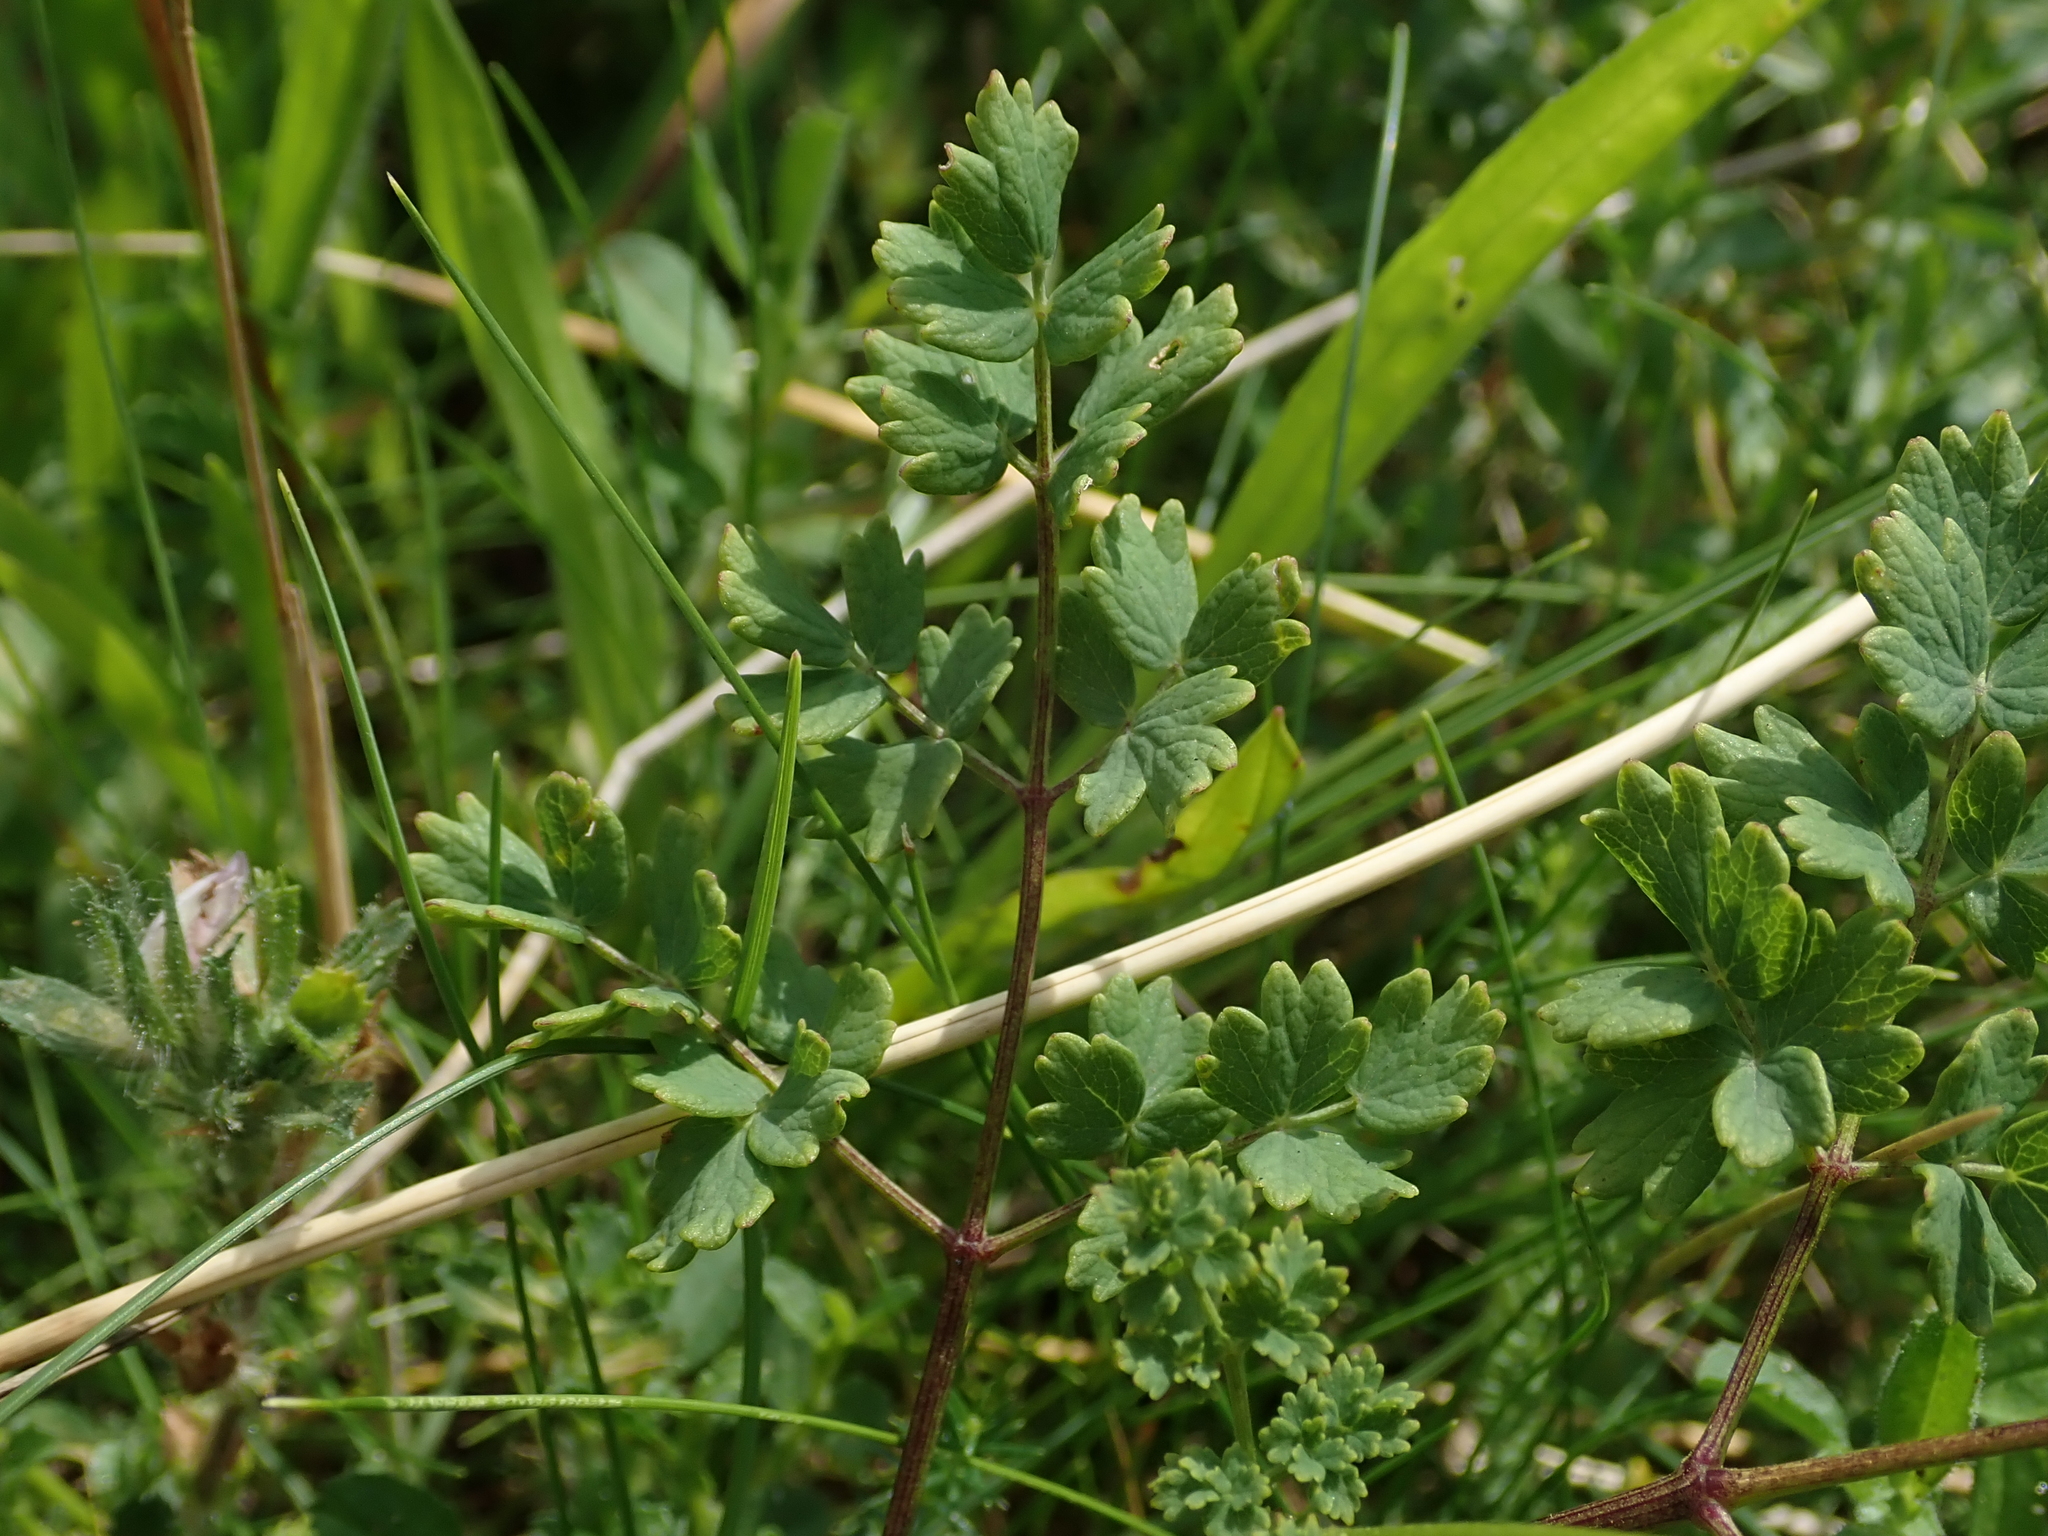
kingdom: Plantae
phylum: Tracheophyta
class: Magnoliopsida
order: Ranunculales
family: Ranunculaceae
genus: Thalictrum
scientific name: Thalictrum minus
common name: Lesser meadow-rue
